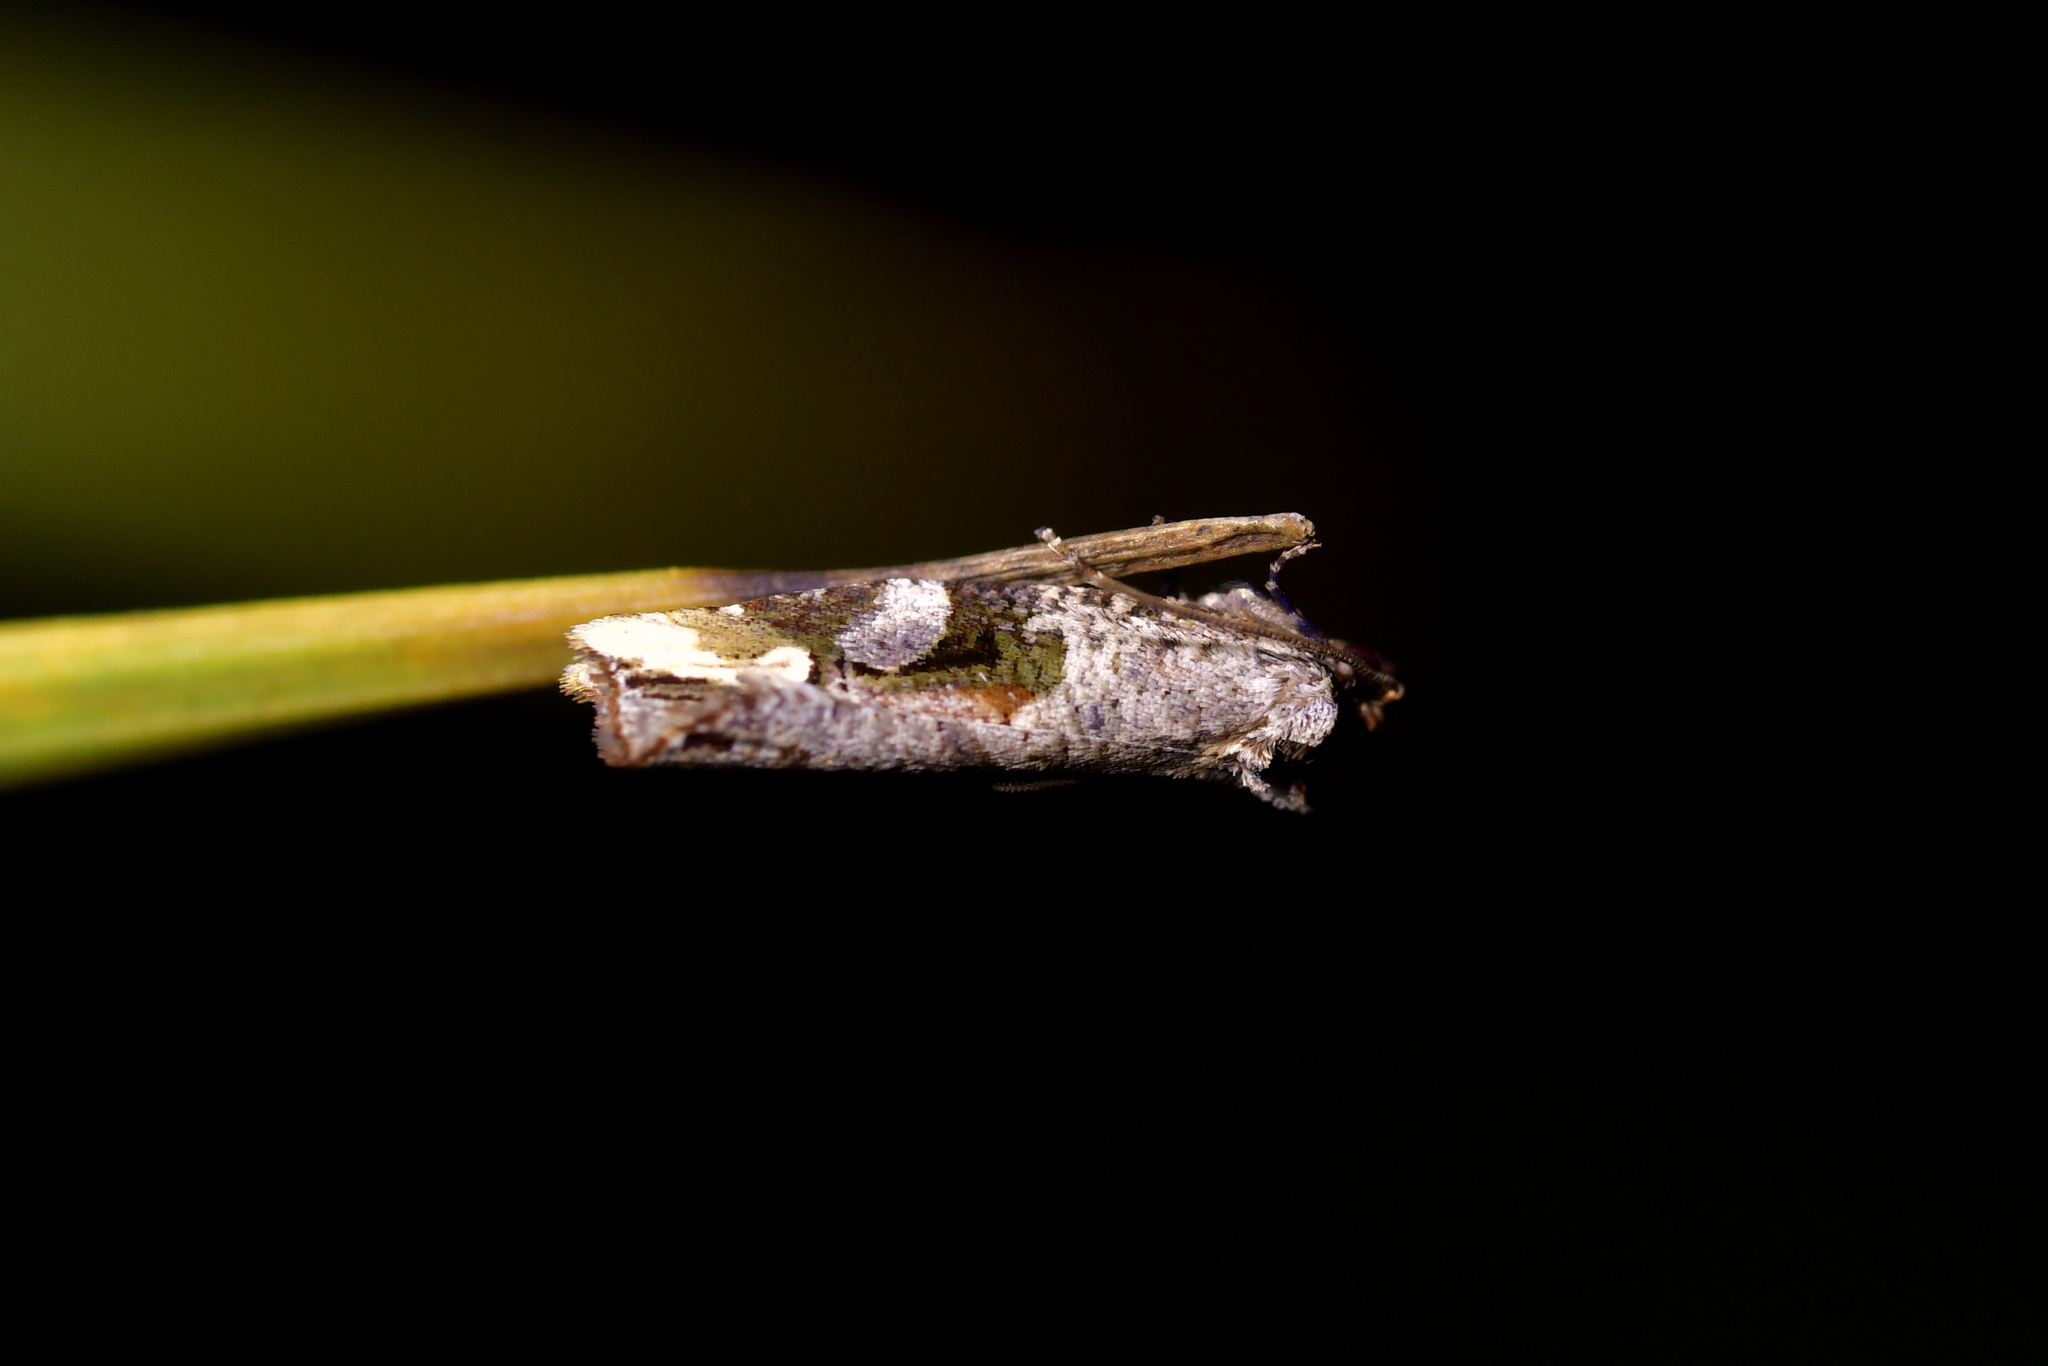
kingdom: Animalia
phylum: Arthropoda
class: Insecta
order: Lepidoptera
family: Tortricidae
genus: Epalxiphora
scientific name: Epalxiphora axenana
